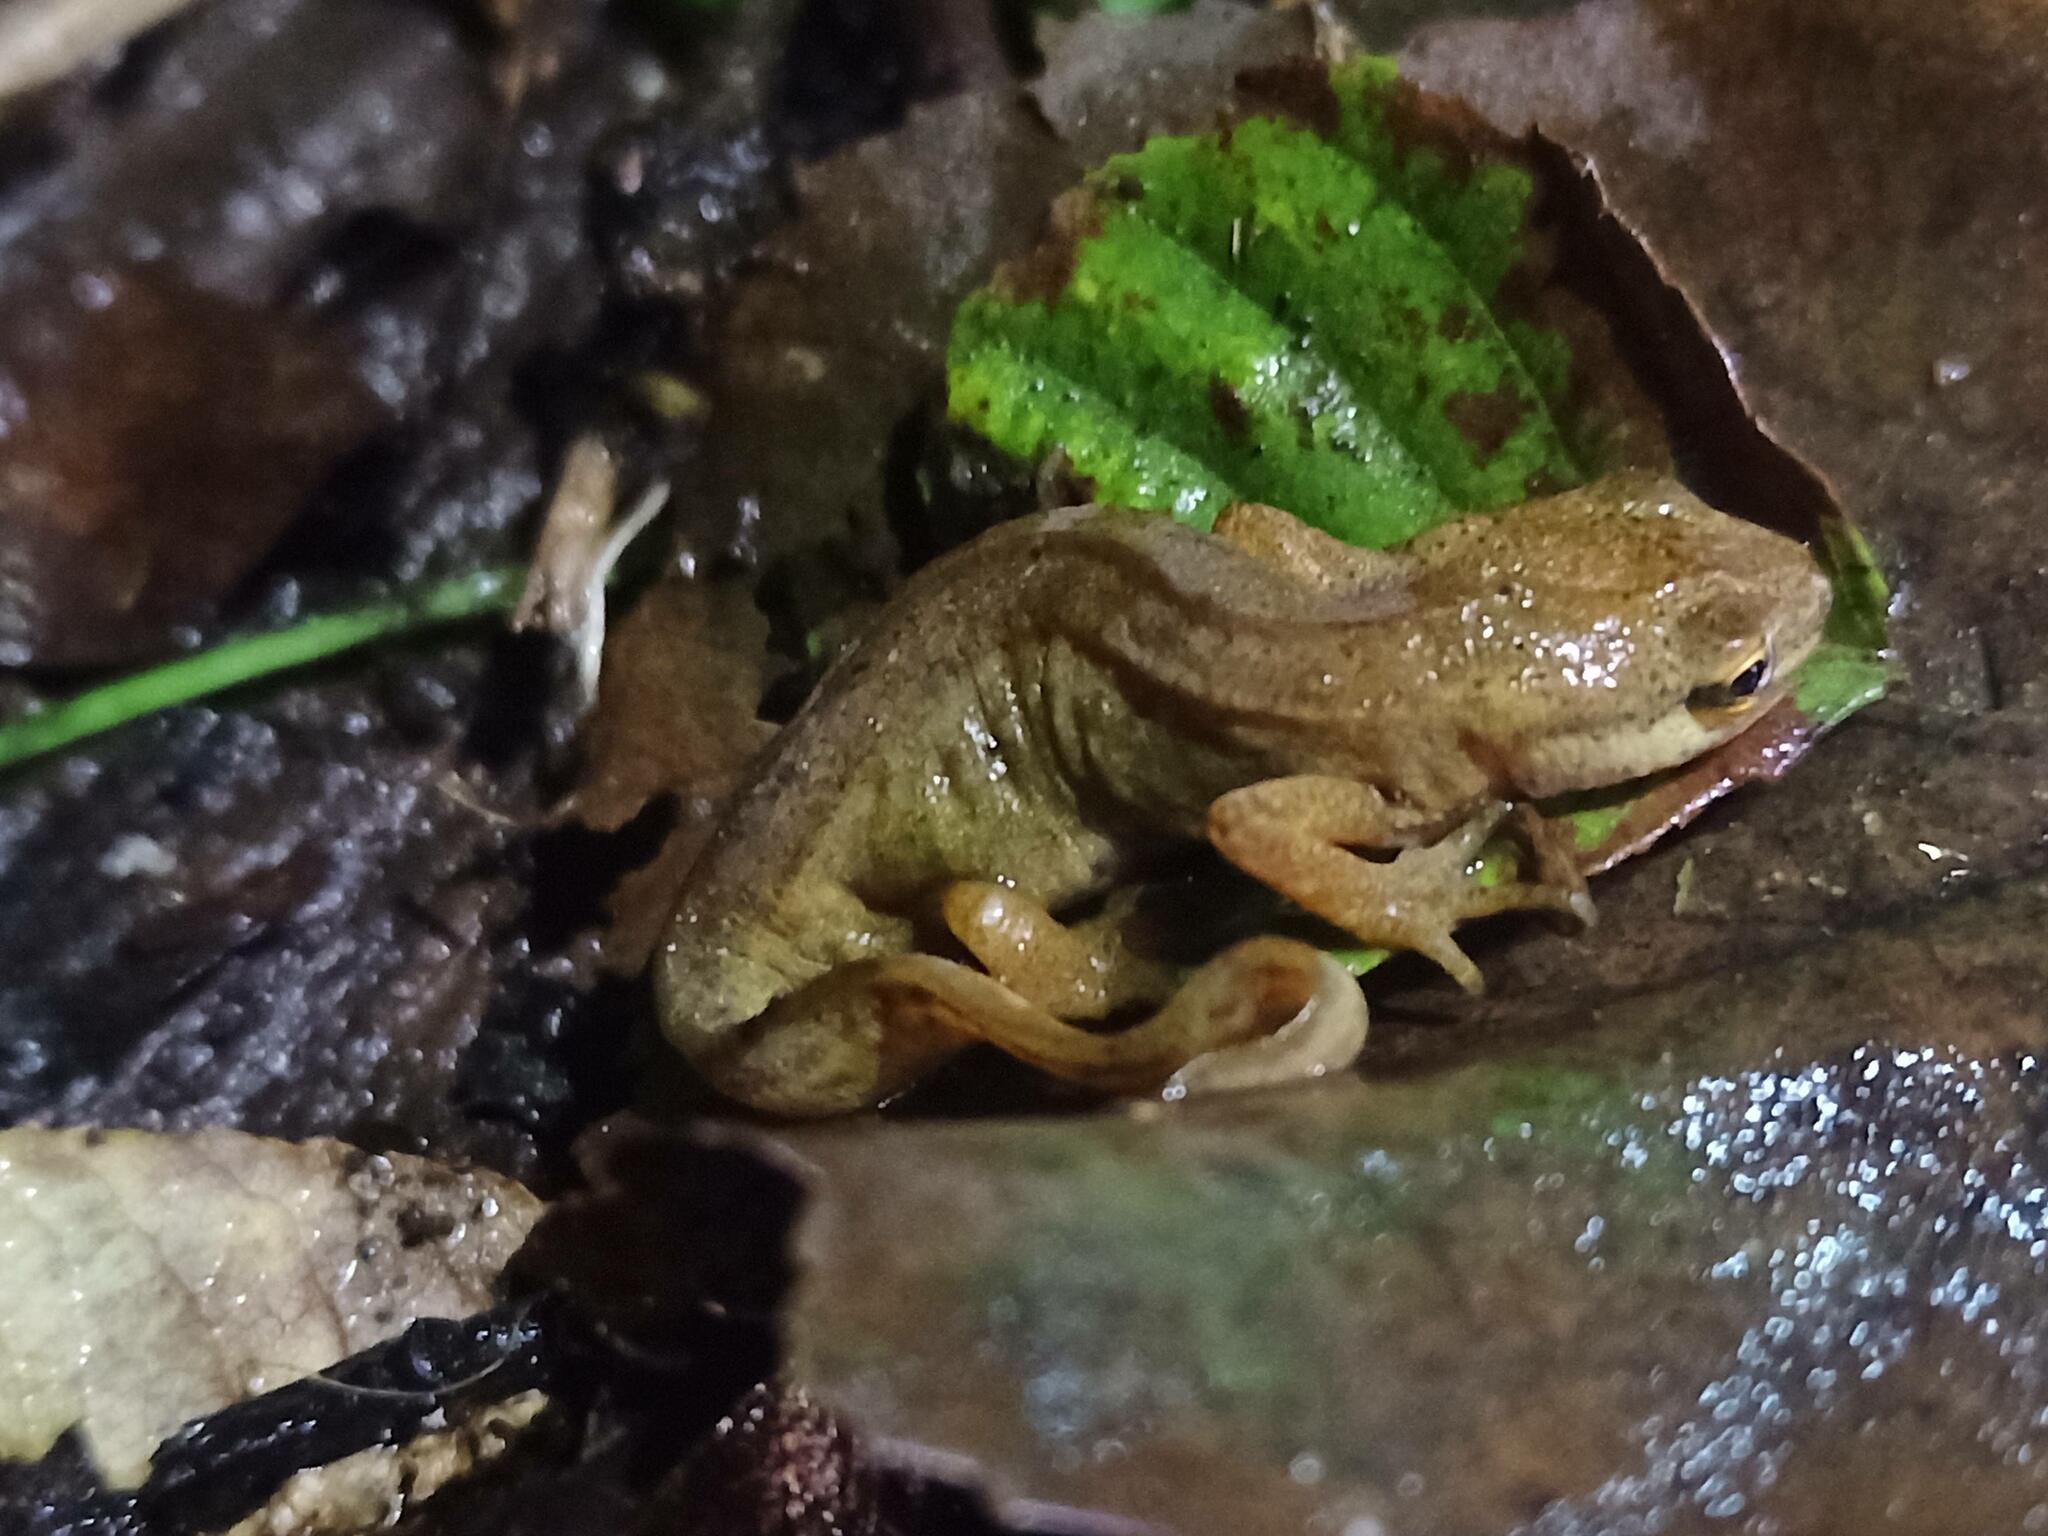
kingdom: Animalia
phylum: Chordata
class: Amphibia
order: Caudata
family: Salamandridae
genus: Lissotriton
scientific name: Lissotriton helveticus
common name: Palmate newt
